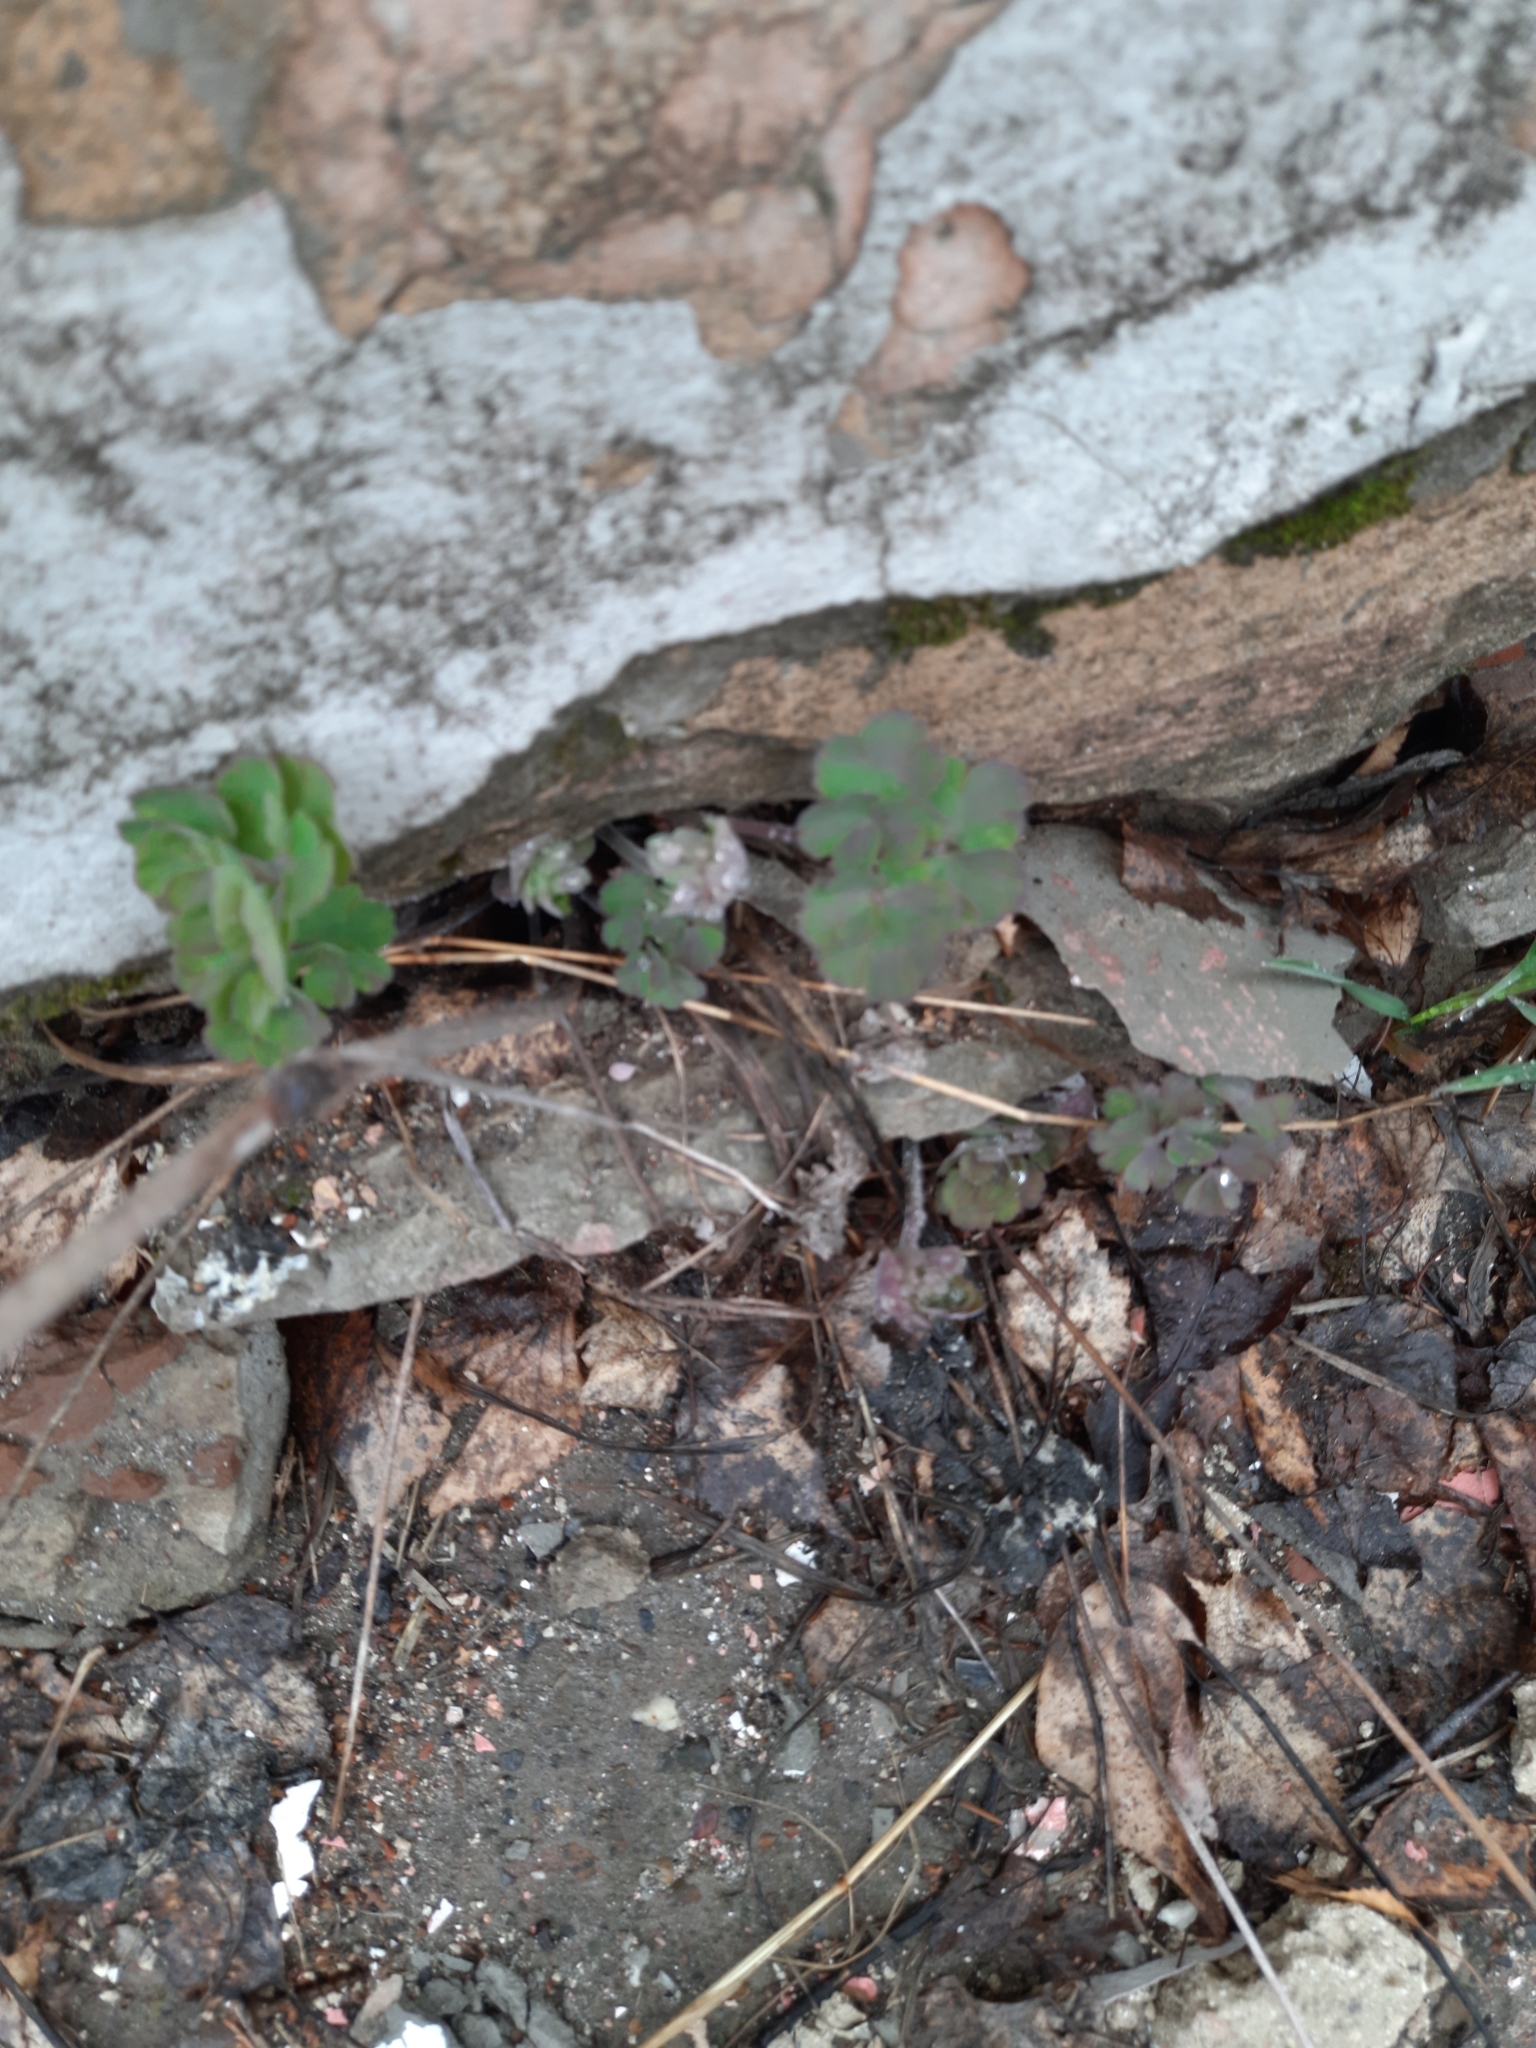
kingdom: Plantae
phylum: Tracheophyta
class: Magnoliopsida
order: Ranunculales
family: Ranunculaceae
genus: Aquilegia
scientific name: Aquilegia vulgaris
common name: Columbine
